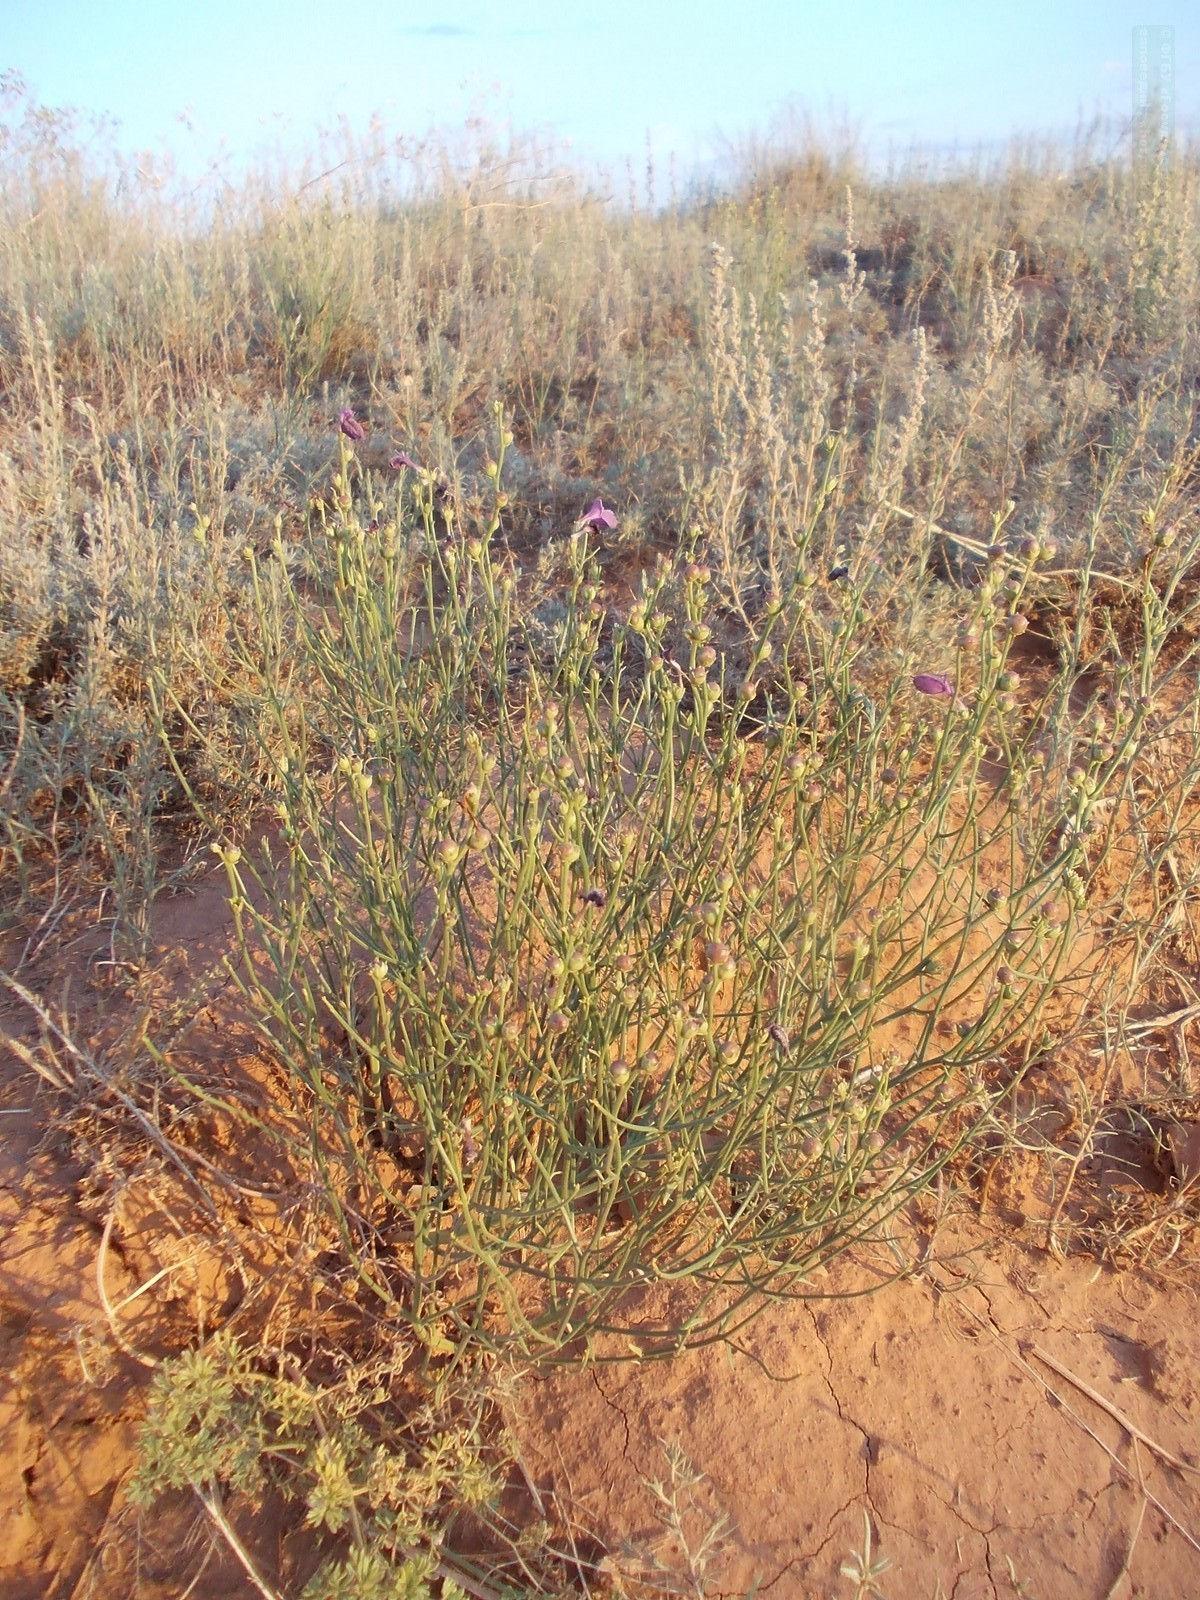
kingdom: Plantae
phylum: Tracheophyta
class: Magnoliopsida
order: Lamiales
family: Mazaceae
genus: Dodartia
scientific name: Dodartia orientalis
